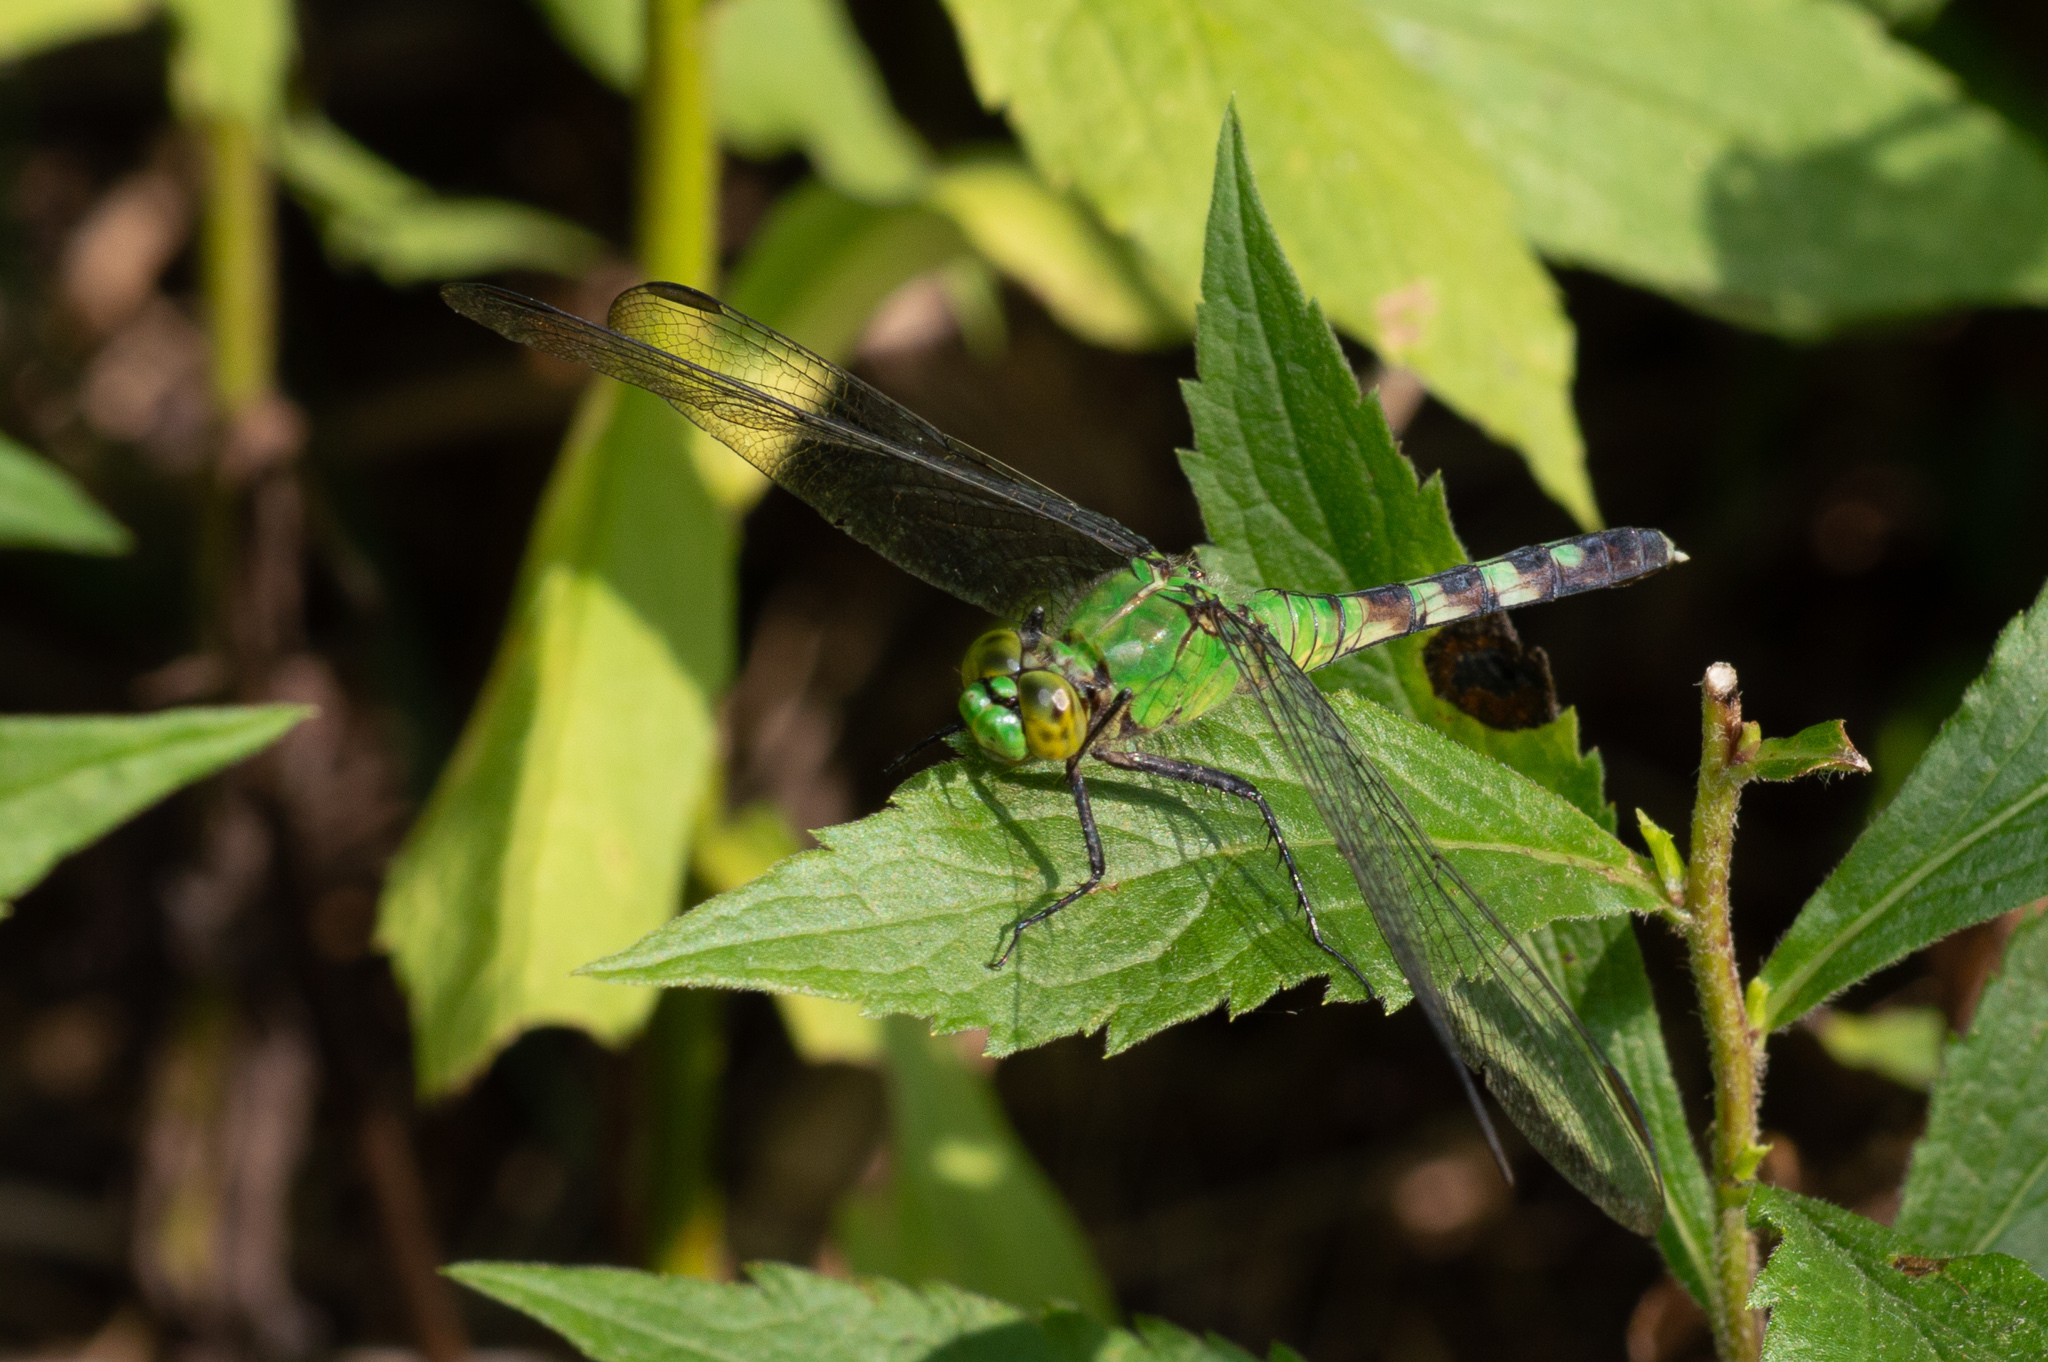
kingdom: Animalia
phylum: Arthropoda
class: Insecta
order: Odonata
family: Libellulidae
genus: Erythemis
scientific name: Erythemis simplicicollis
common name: Eastern pondhawk
